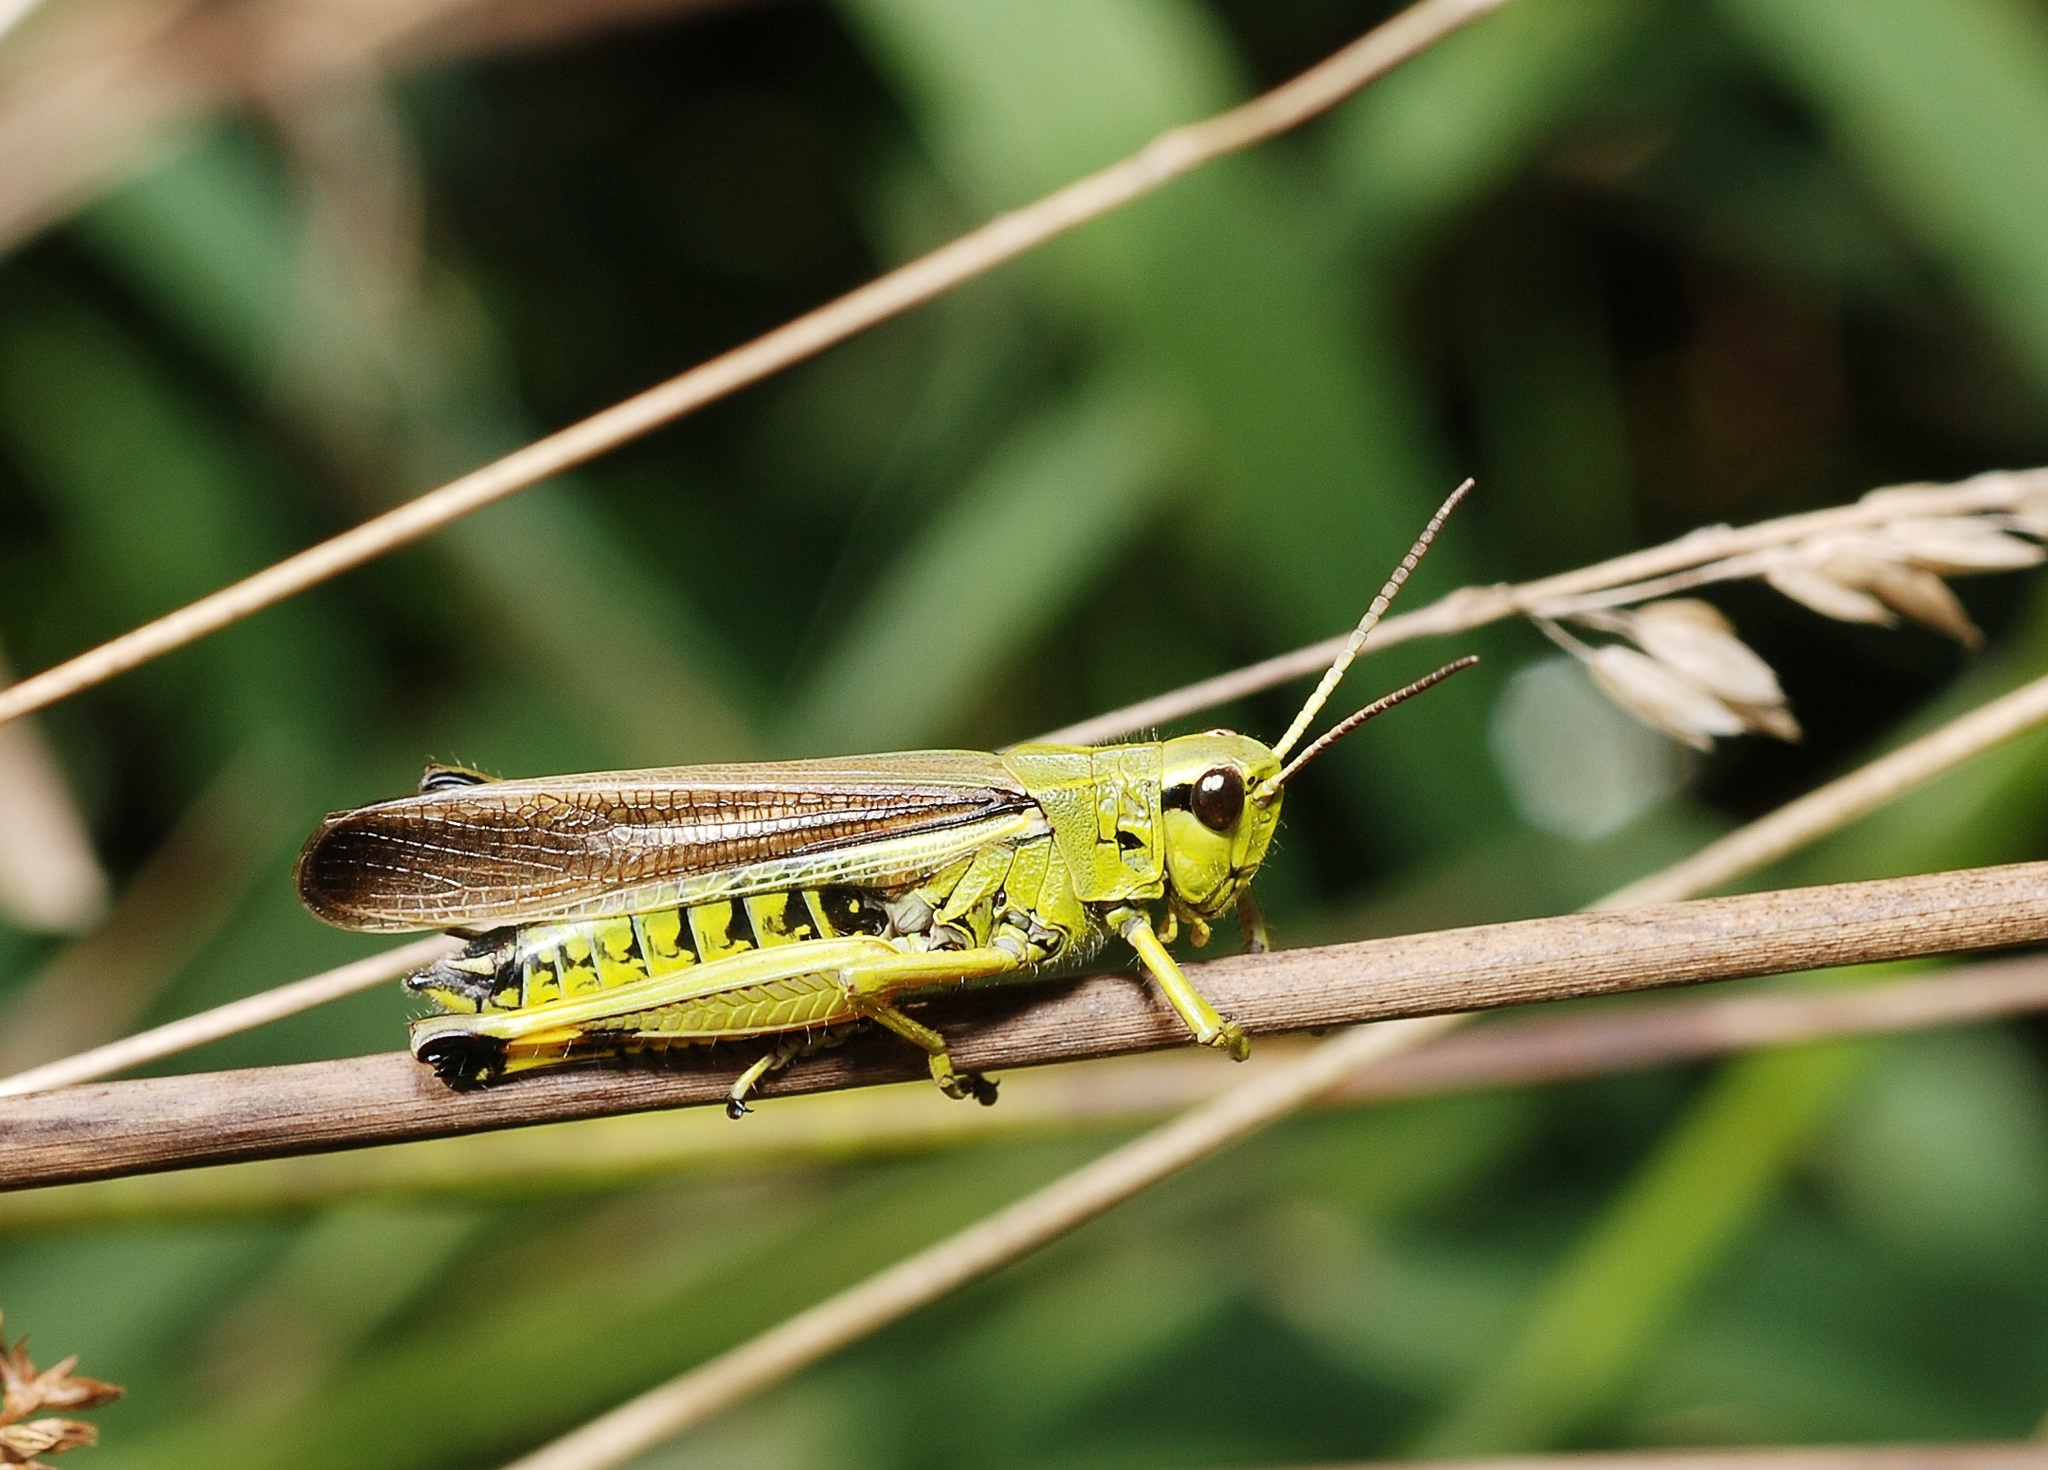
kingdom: Animalia
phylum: Arthropoda
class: Insecta
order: Orthoptera
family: Acrididae
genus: Stethophyma
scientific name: Stethophyma grossum
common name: Large marsh grasshopper
